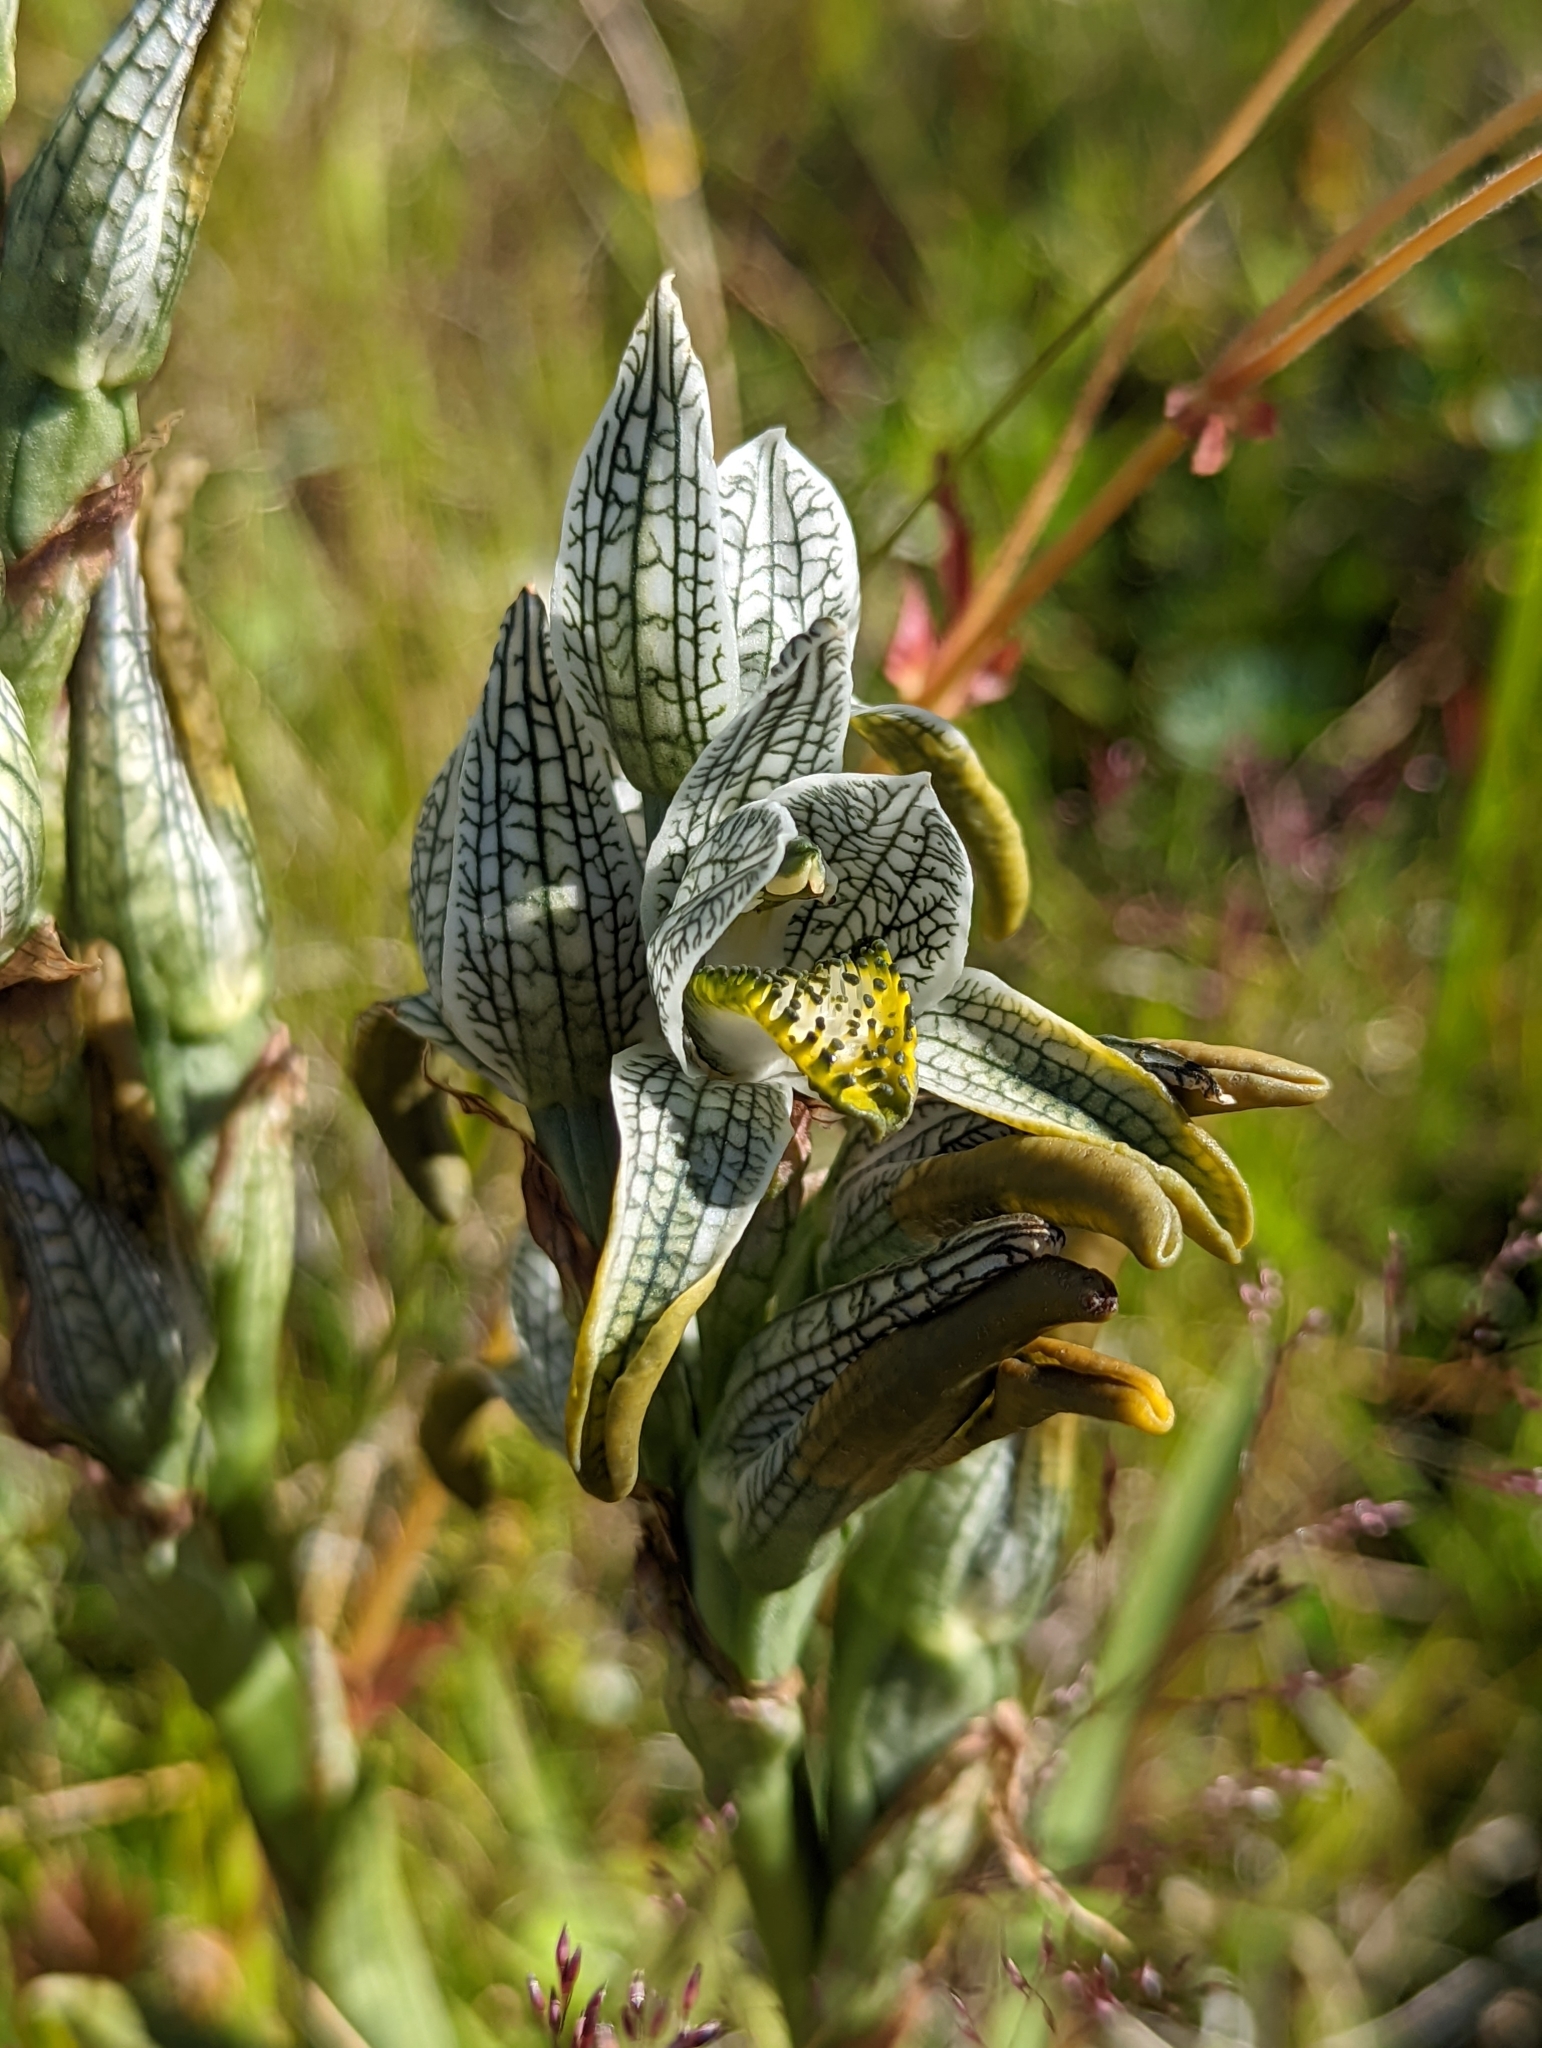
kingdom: Plantae
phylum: Tracheophyta
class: Liliopsida
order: Asparagales
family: Orchidaceae
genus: Chloraea
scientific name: Chloraea magellanica
